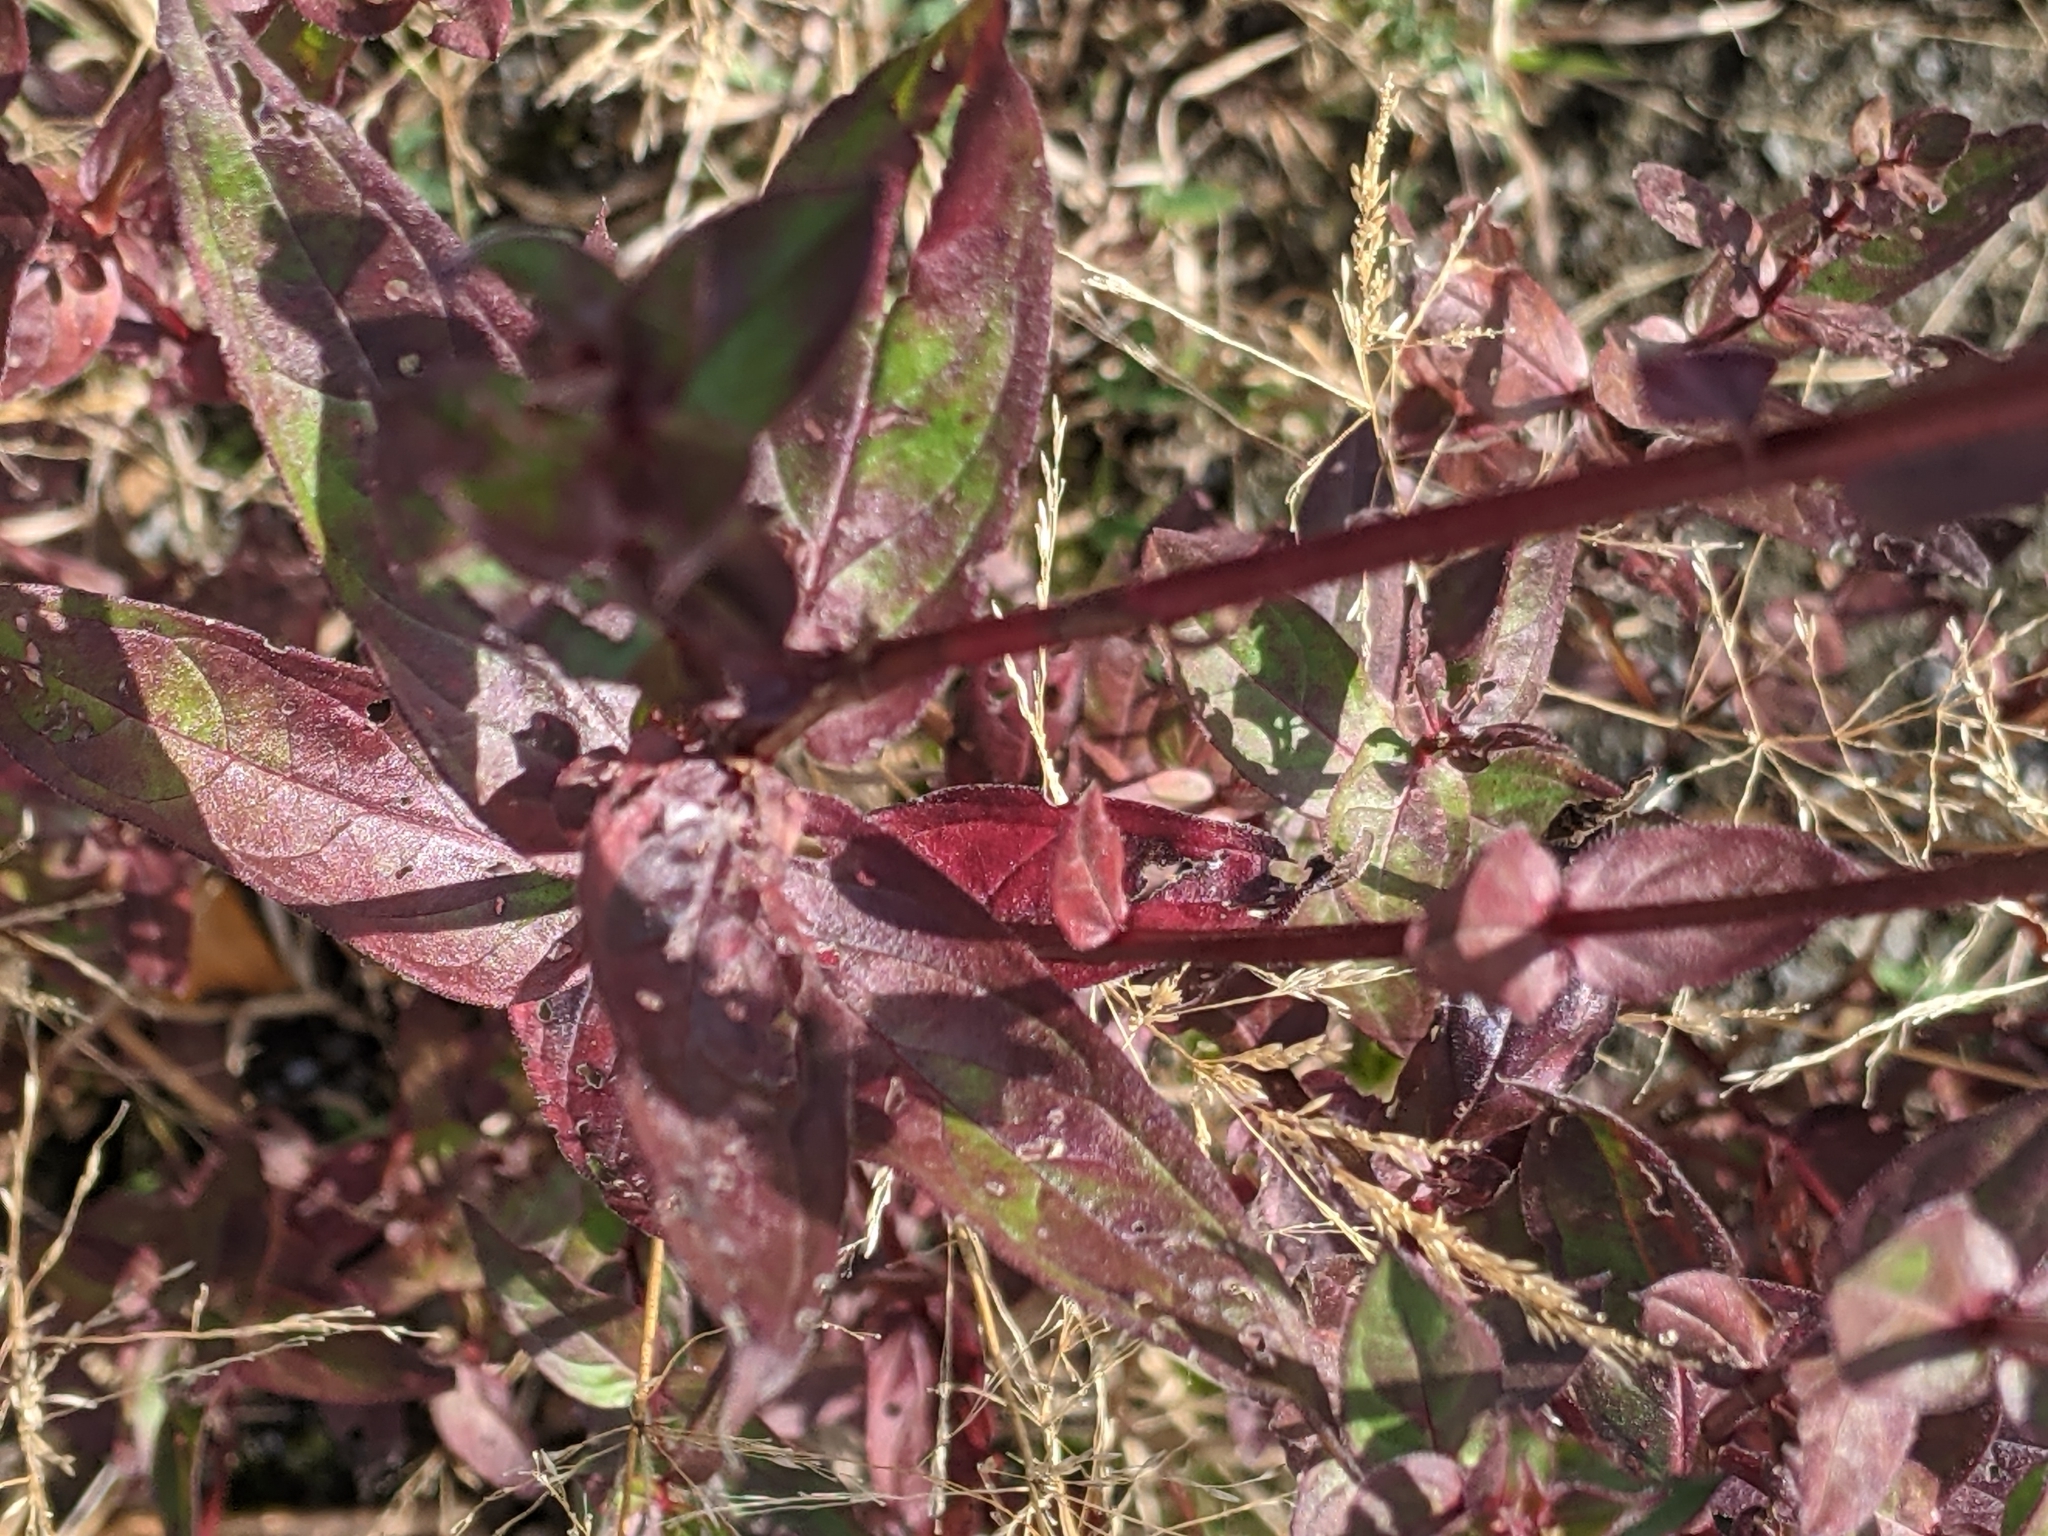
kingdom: Plantae
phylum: Tracheophyta
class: Magnoliopsida
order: Myrtales
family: Lythraceae
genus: Lythrum
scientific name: Lythrum salicaria
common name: Purple loosestrife
